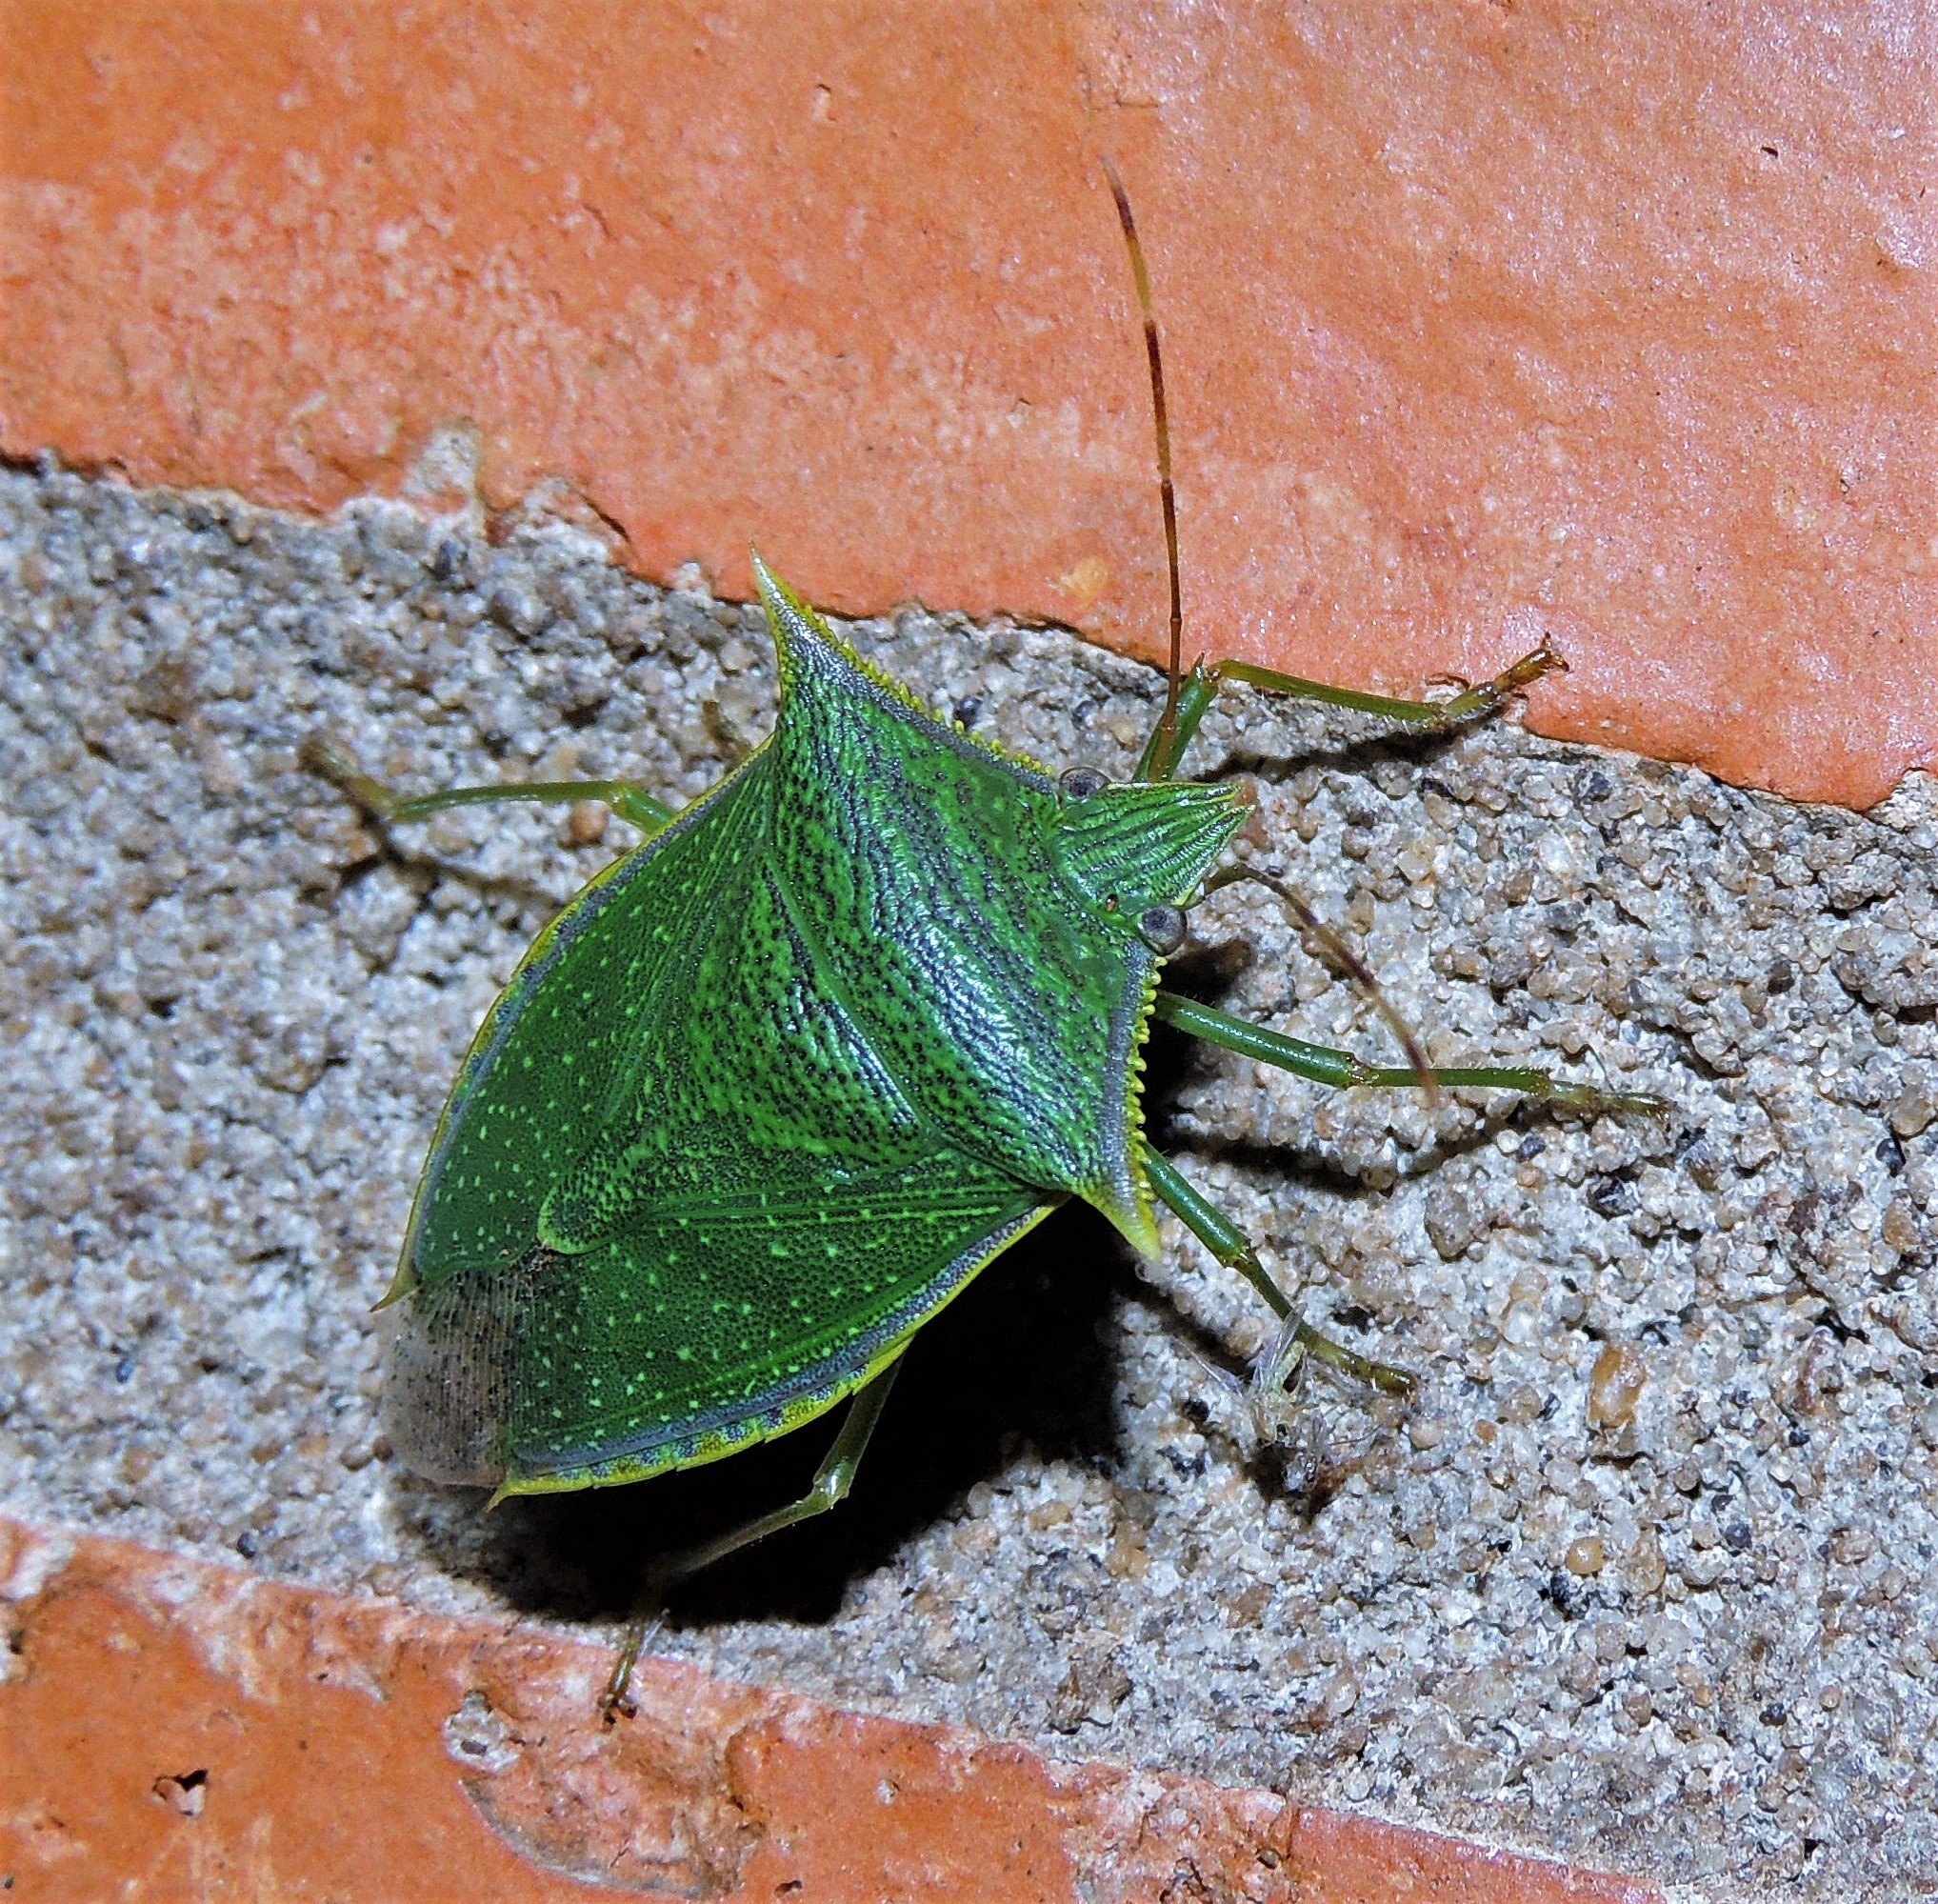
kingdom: Animalia
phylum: Arthropoda
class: Insecta
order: Hemiptera
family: Pentatomidae
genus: Loxa
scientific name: Loxa viridis
